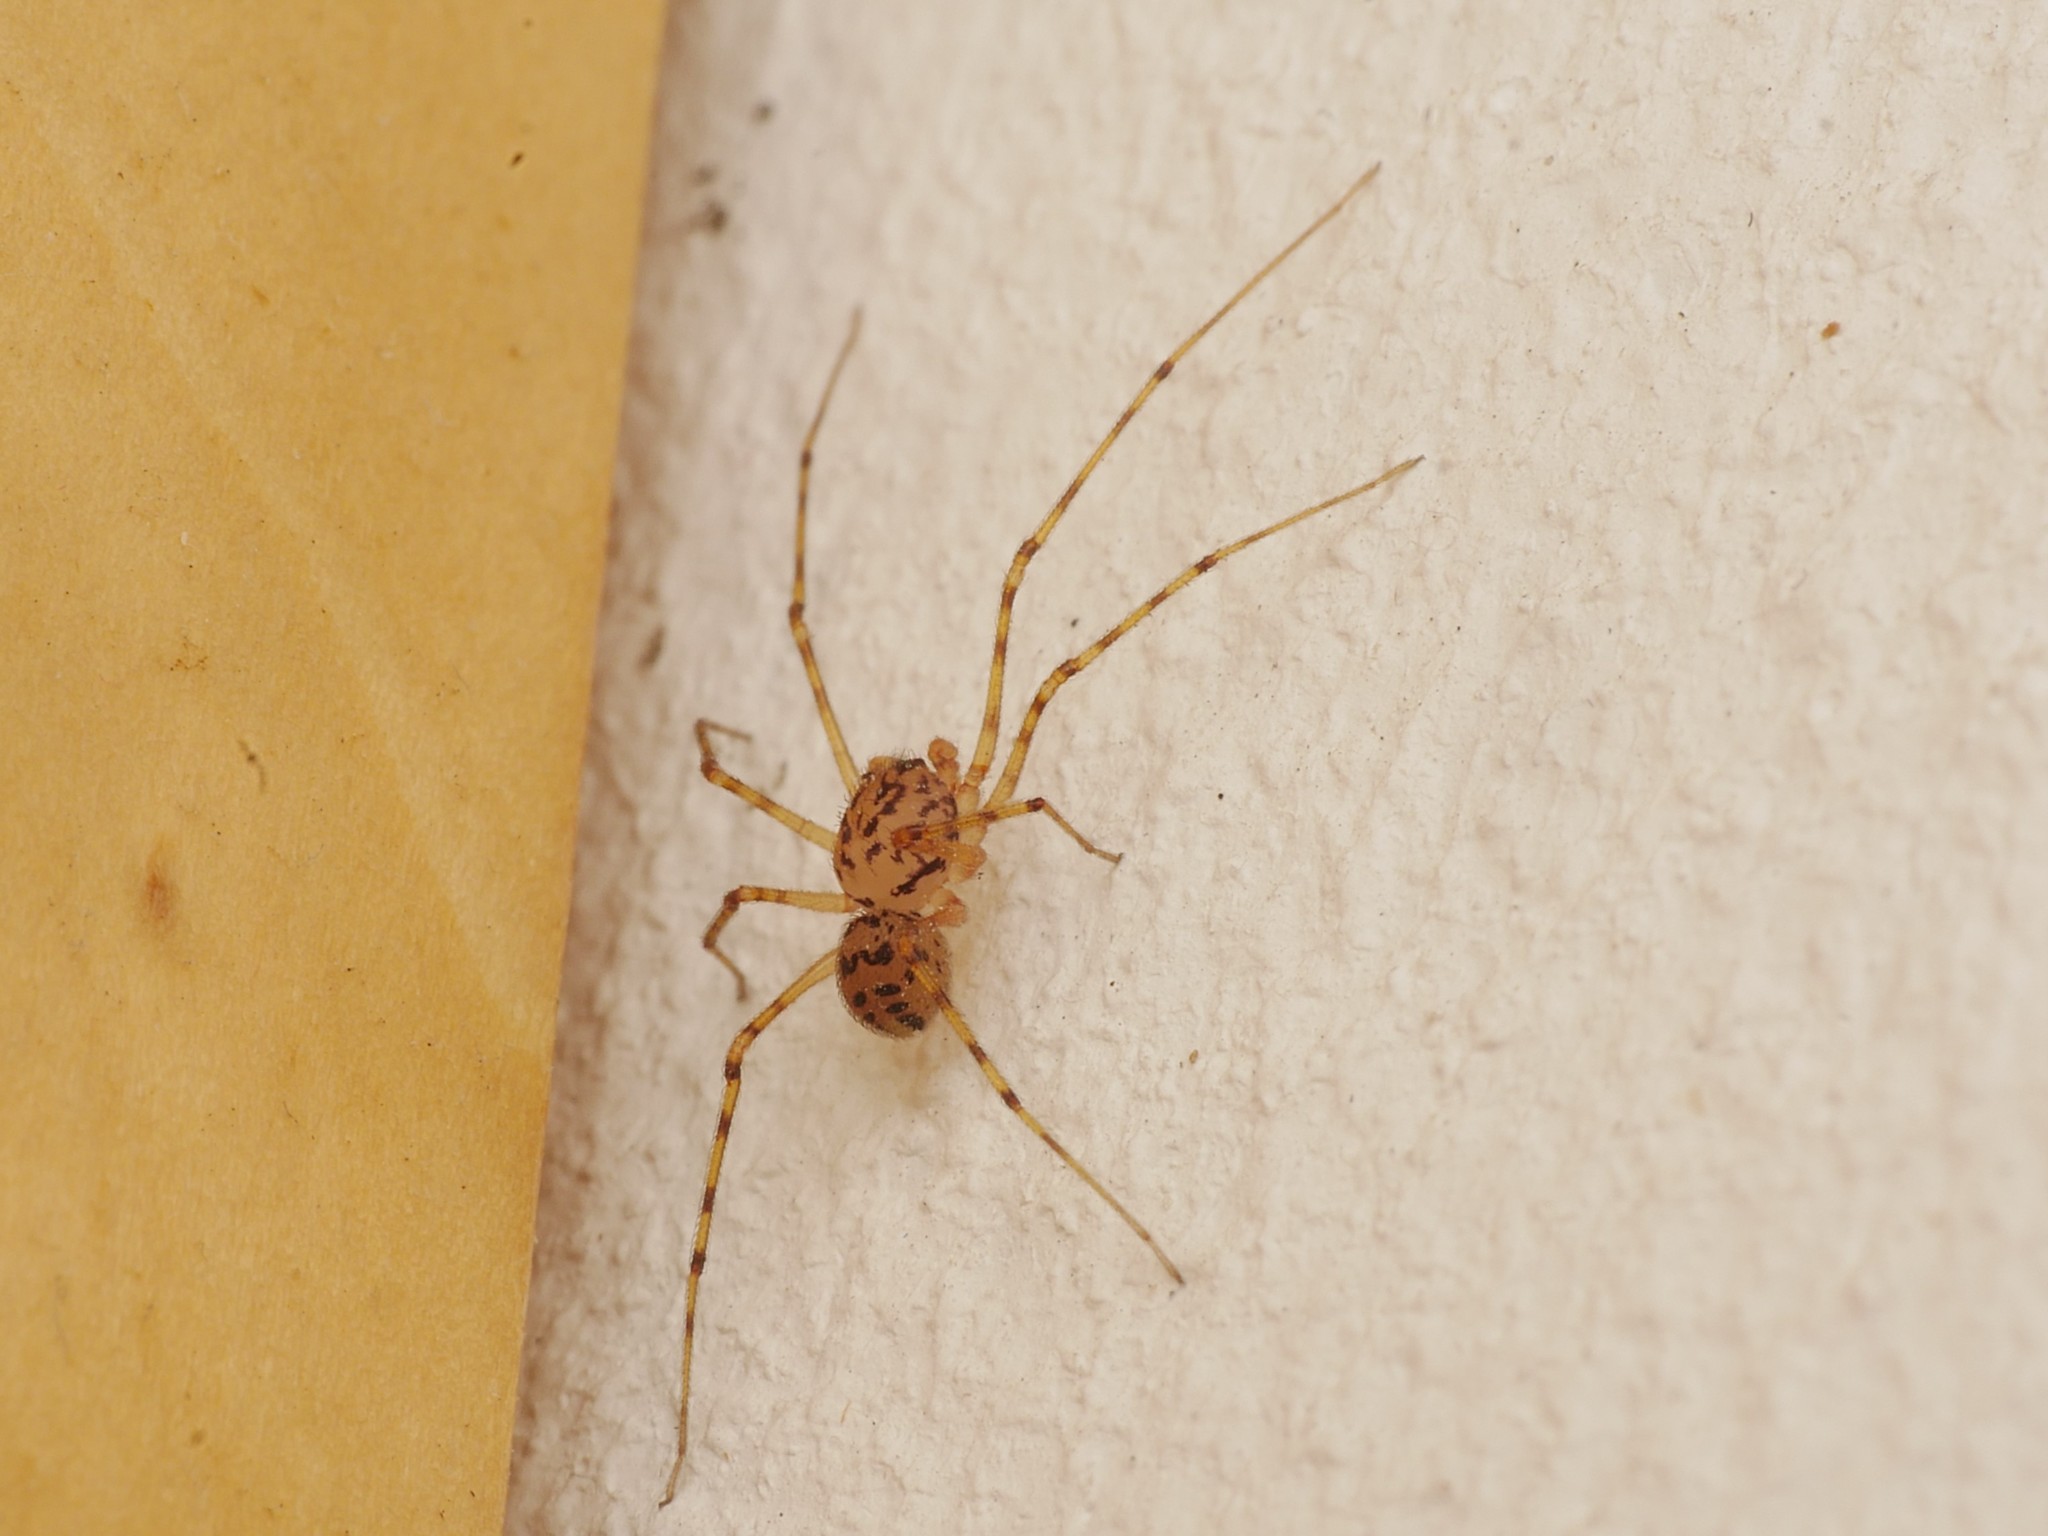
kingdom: Animalia
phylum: Arthropoda
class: Arachnida
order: Araneae
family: Scytodidae
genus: Scytodes
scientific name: Scytodes thoracica
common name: Spitting spider
